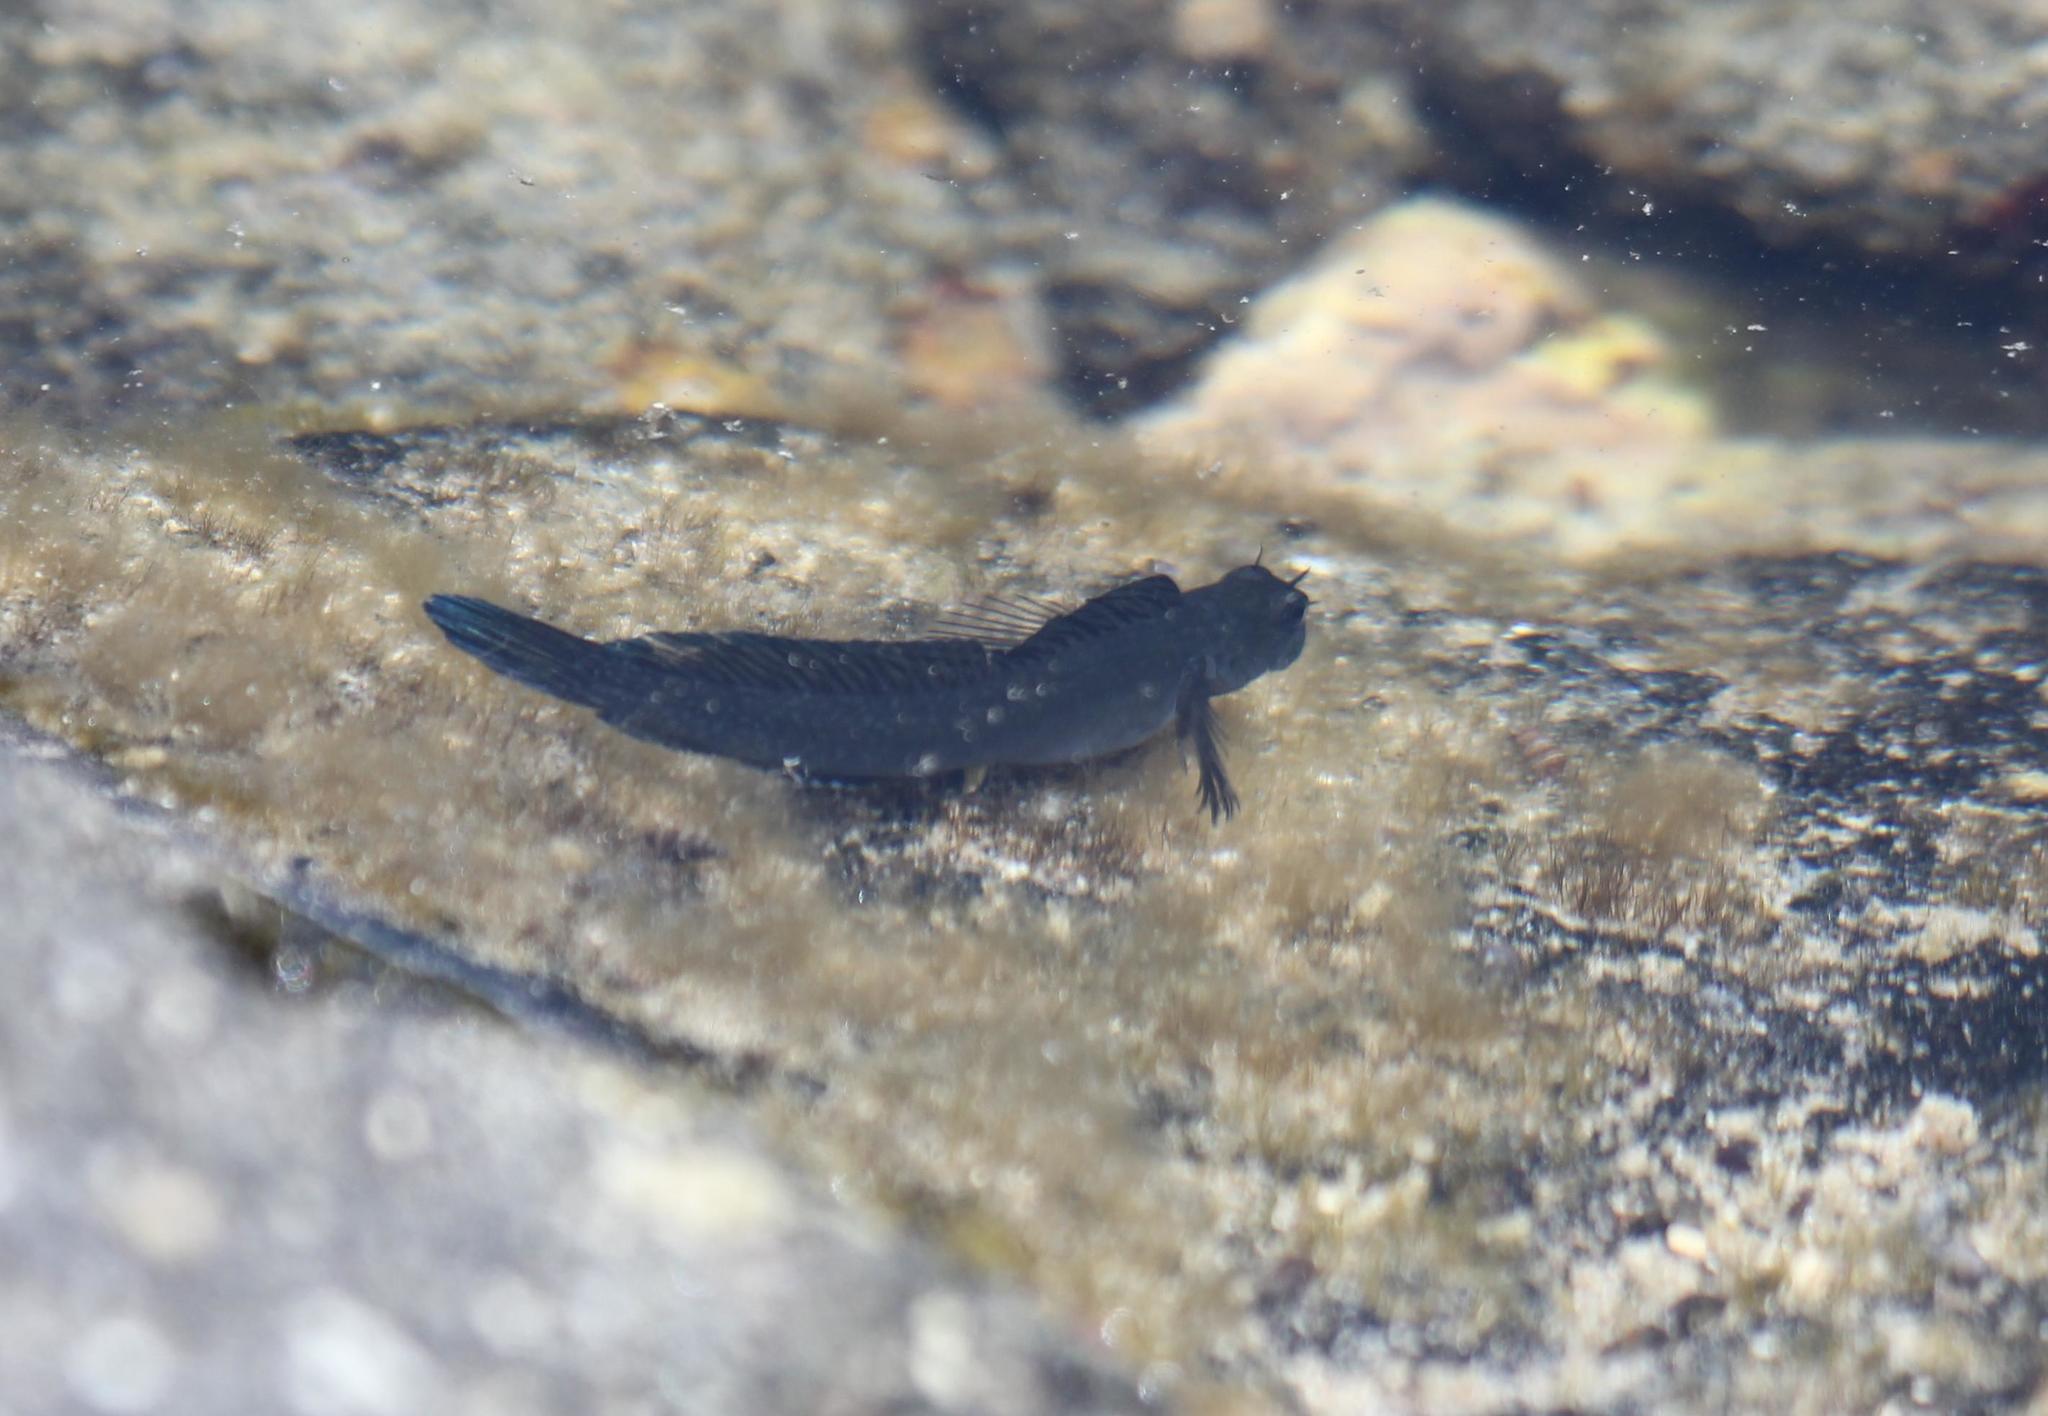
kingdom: Animalia
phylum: Chordata
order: Perciformes
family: Blenniidae
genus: Istiblennius
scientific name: Istiblennius zebra
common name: Zebra blenny
